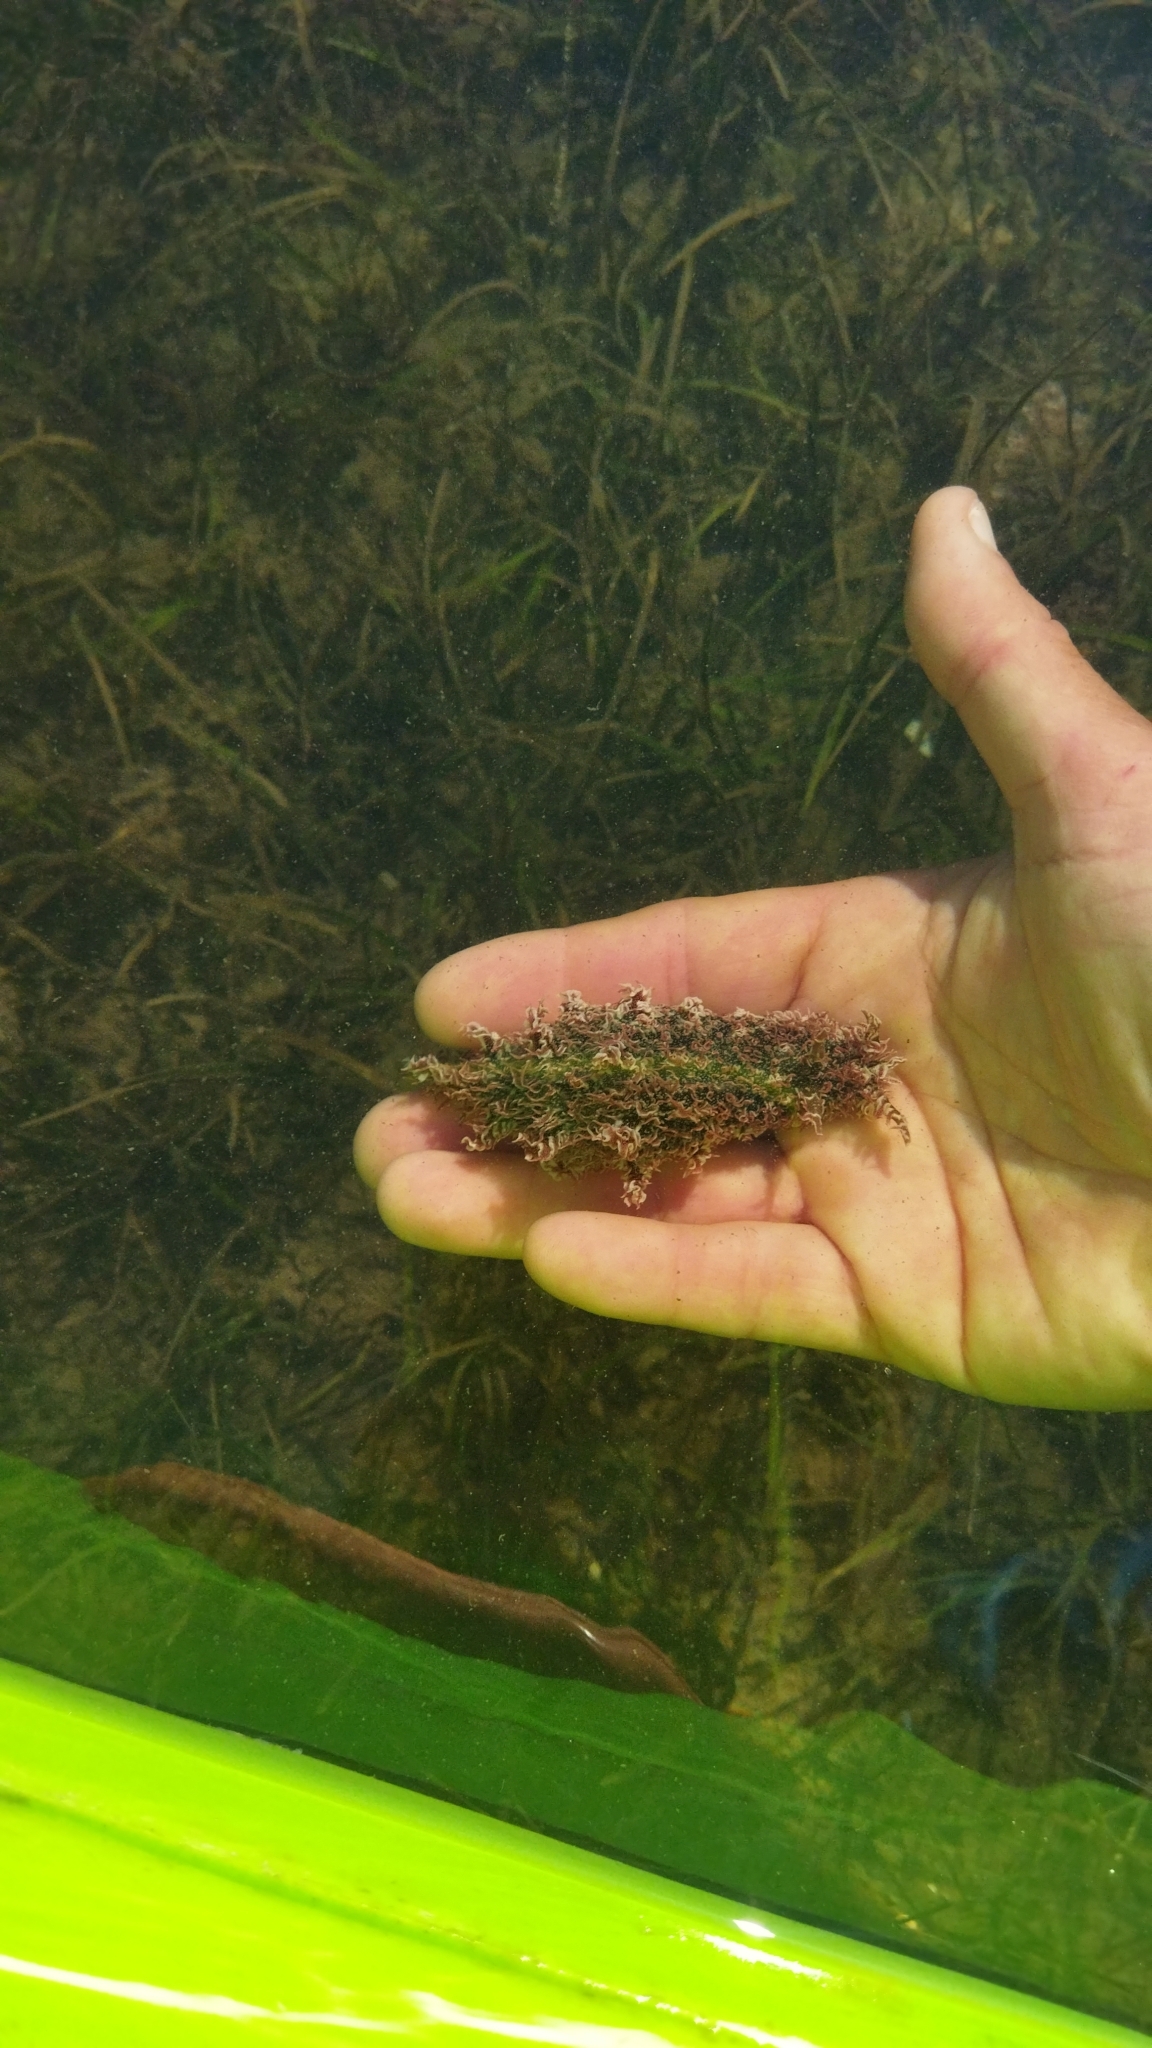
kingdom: Animalia
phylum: Mollusca
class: Gastropoda
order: Aplysiida
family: Aplysiidae
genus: Bursatella
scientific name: Bursatella leachii
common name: Shaggy sea hare
